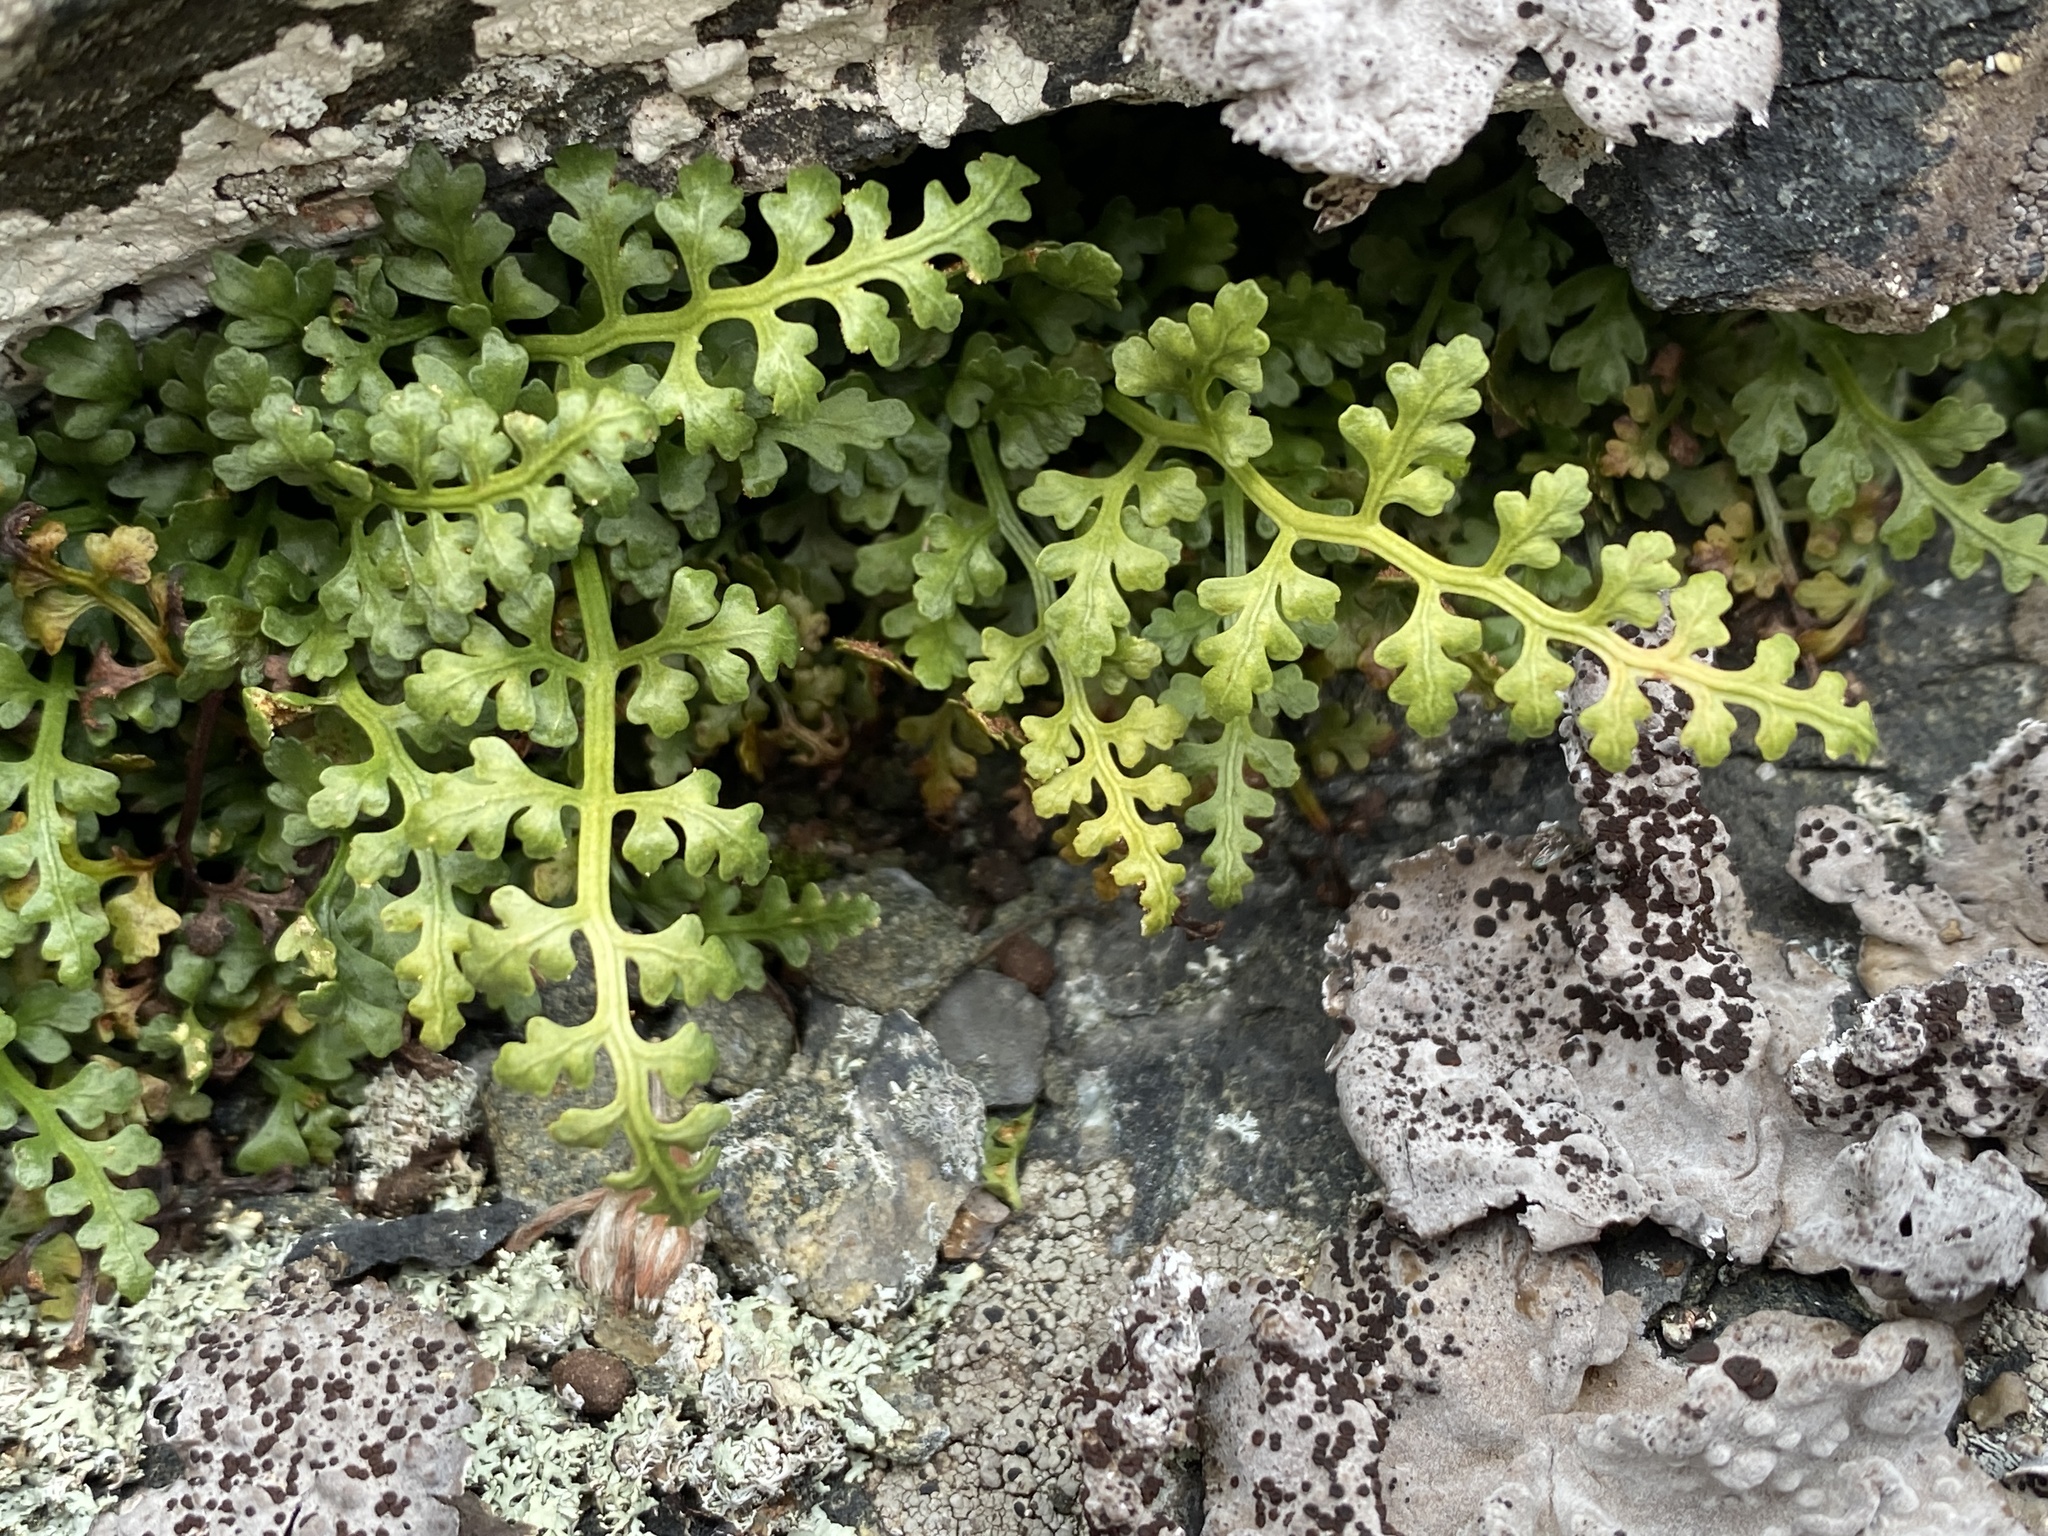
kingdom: Plantae
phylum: Tracheophyta
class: Polypodiopsida
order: Polypodiales
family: Aspleniaceae
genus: Asplenium
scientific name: Asplenium montanum
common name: Mountain spleenwort
